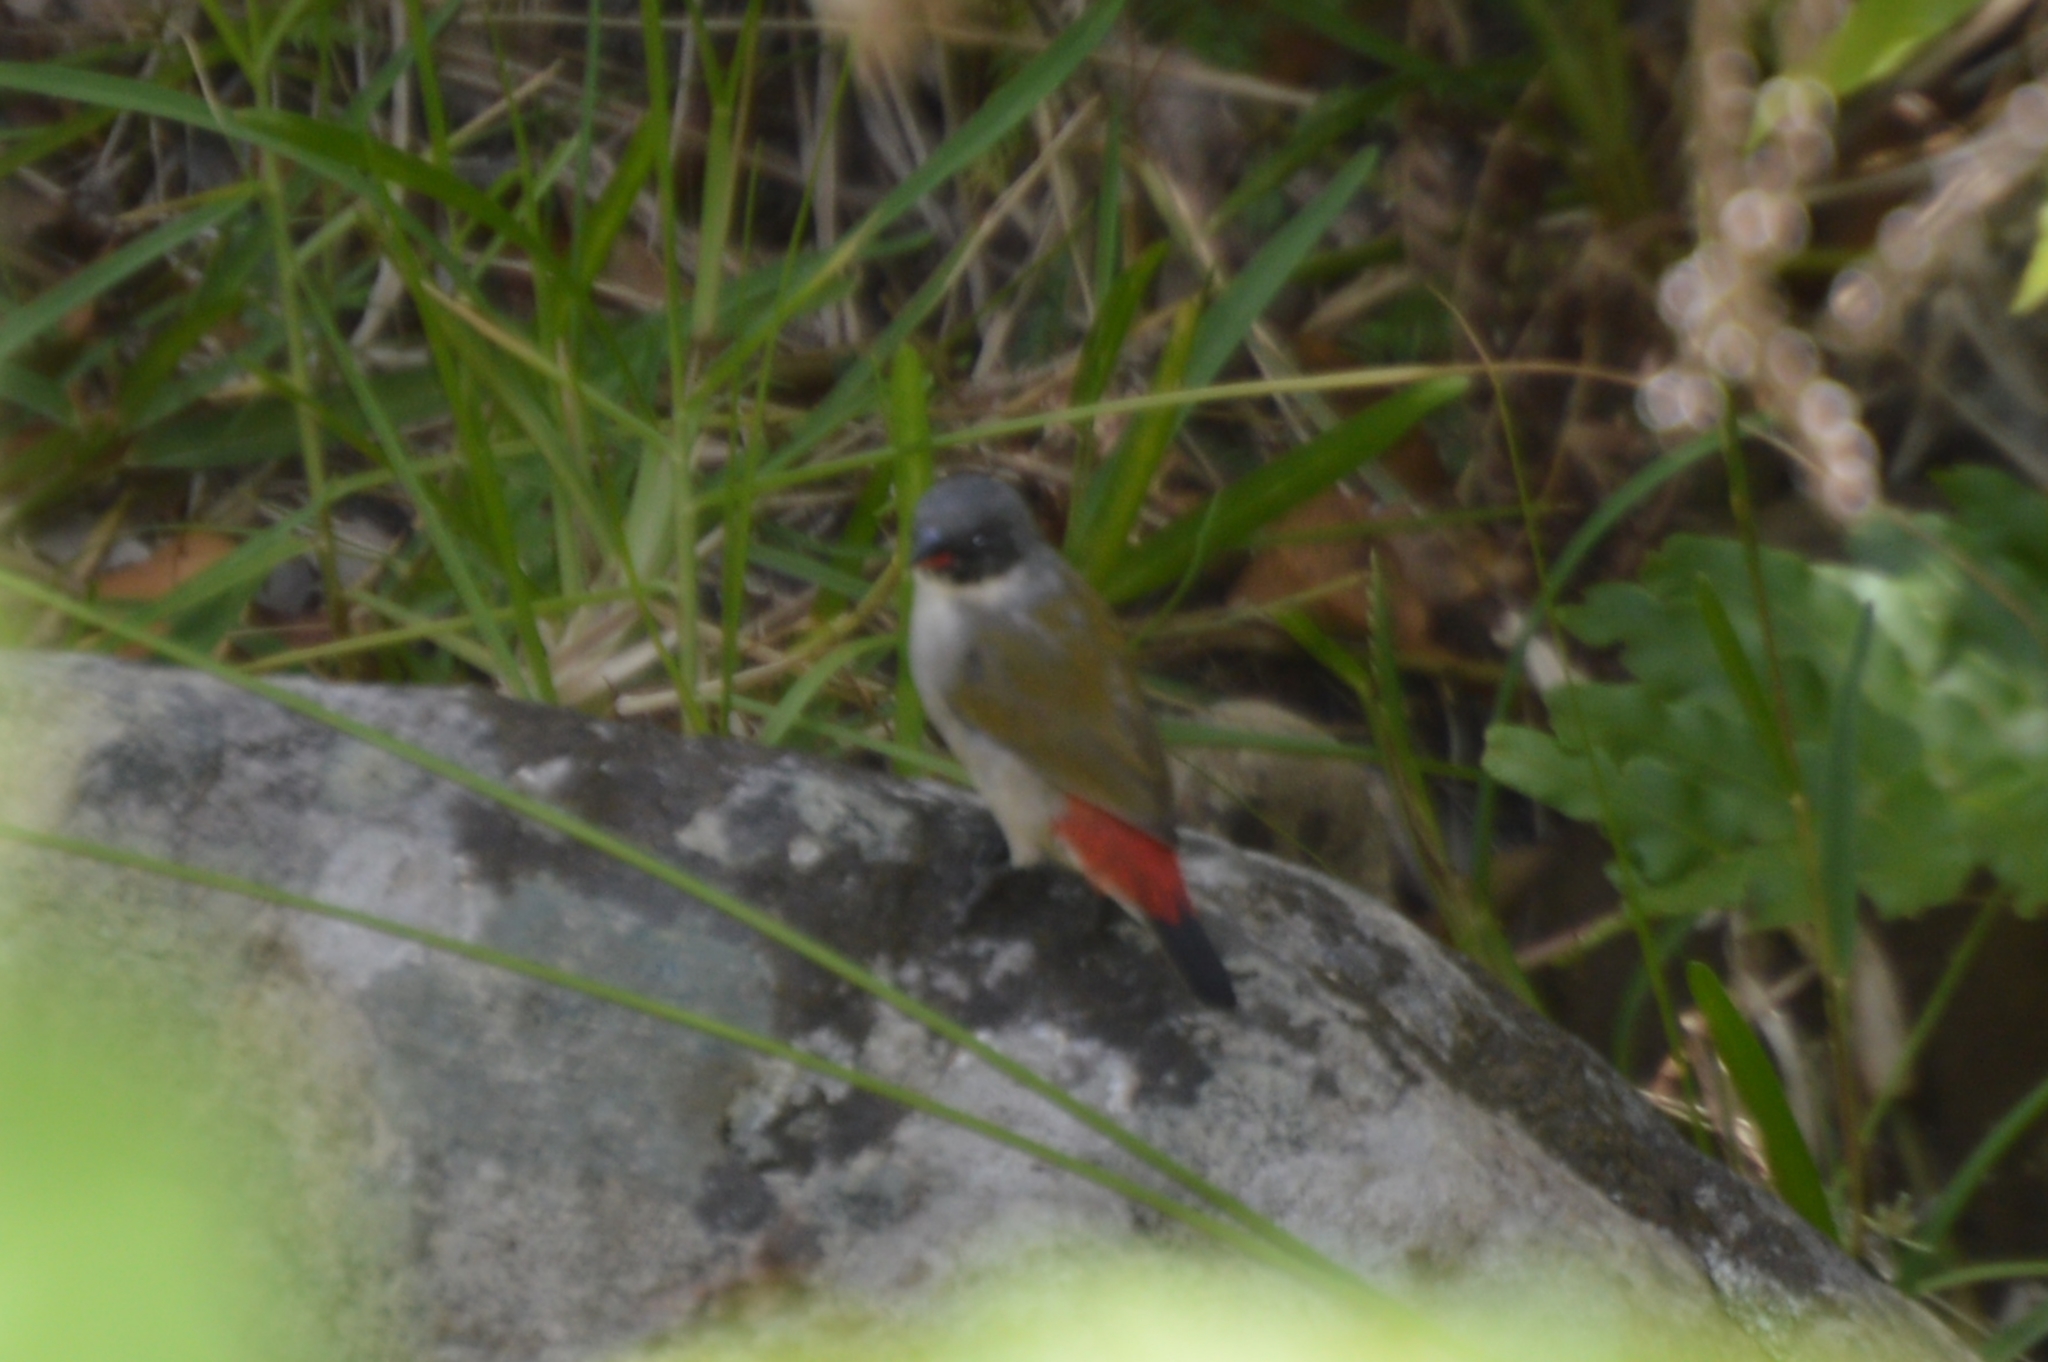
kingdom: Animalia
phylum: Chordata
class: Aves
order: Passeriformes
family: Estrildidae
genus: Coccopygia
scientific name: Coccopygia melanotis
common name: Swee waxbill
